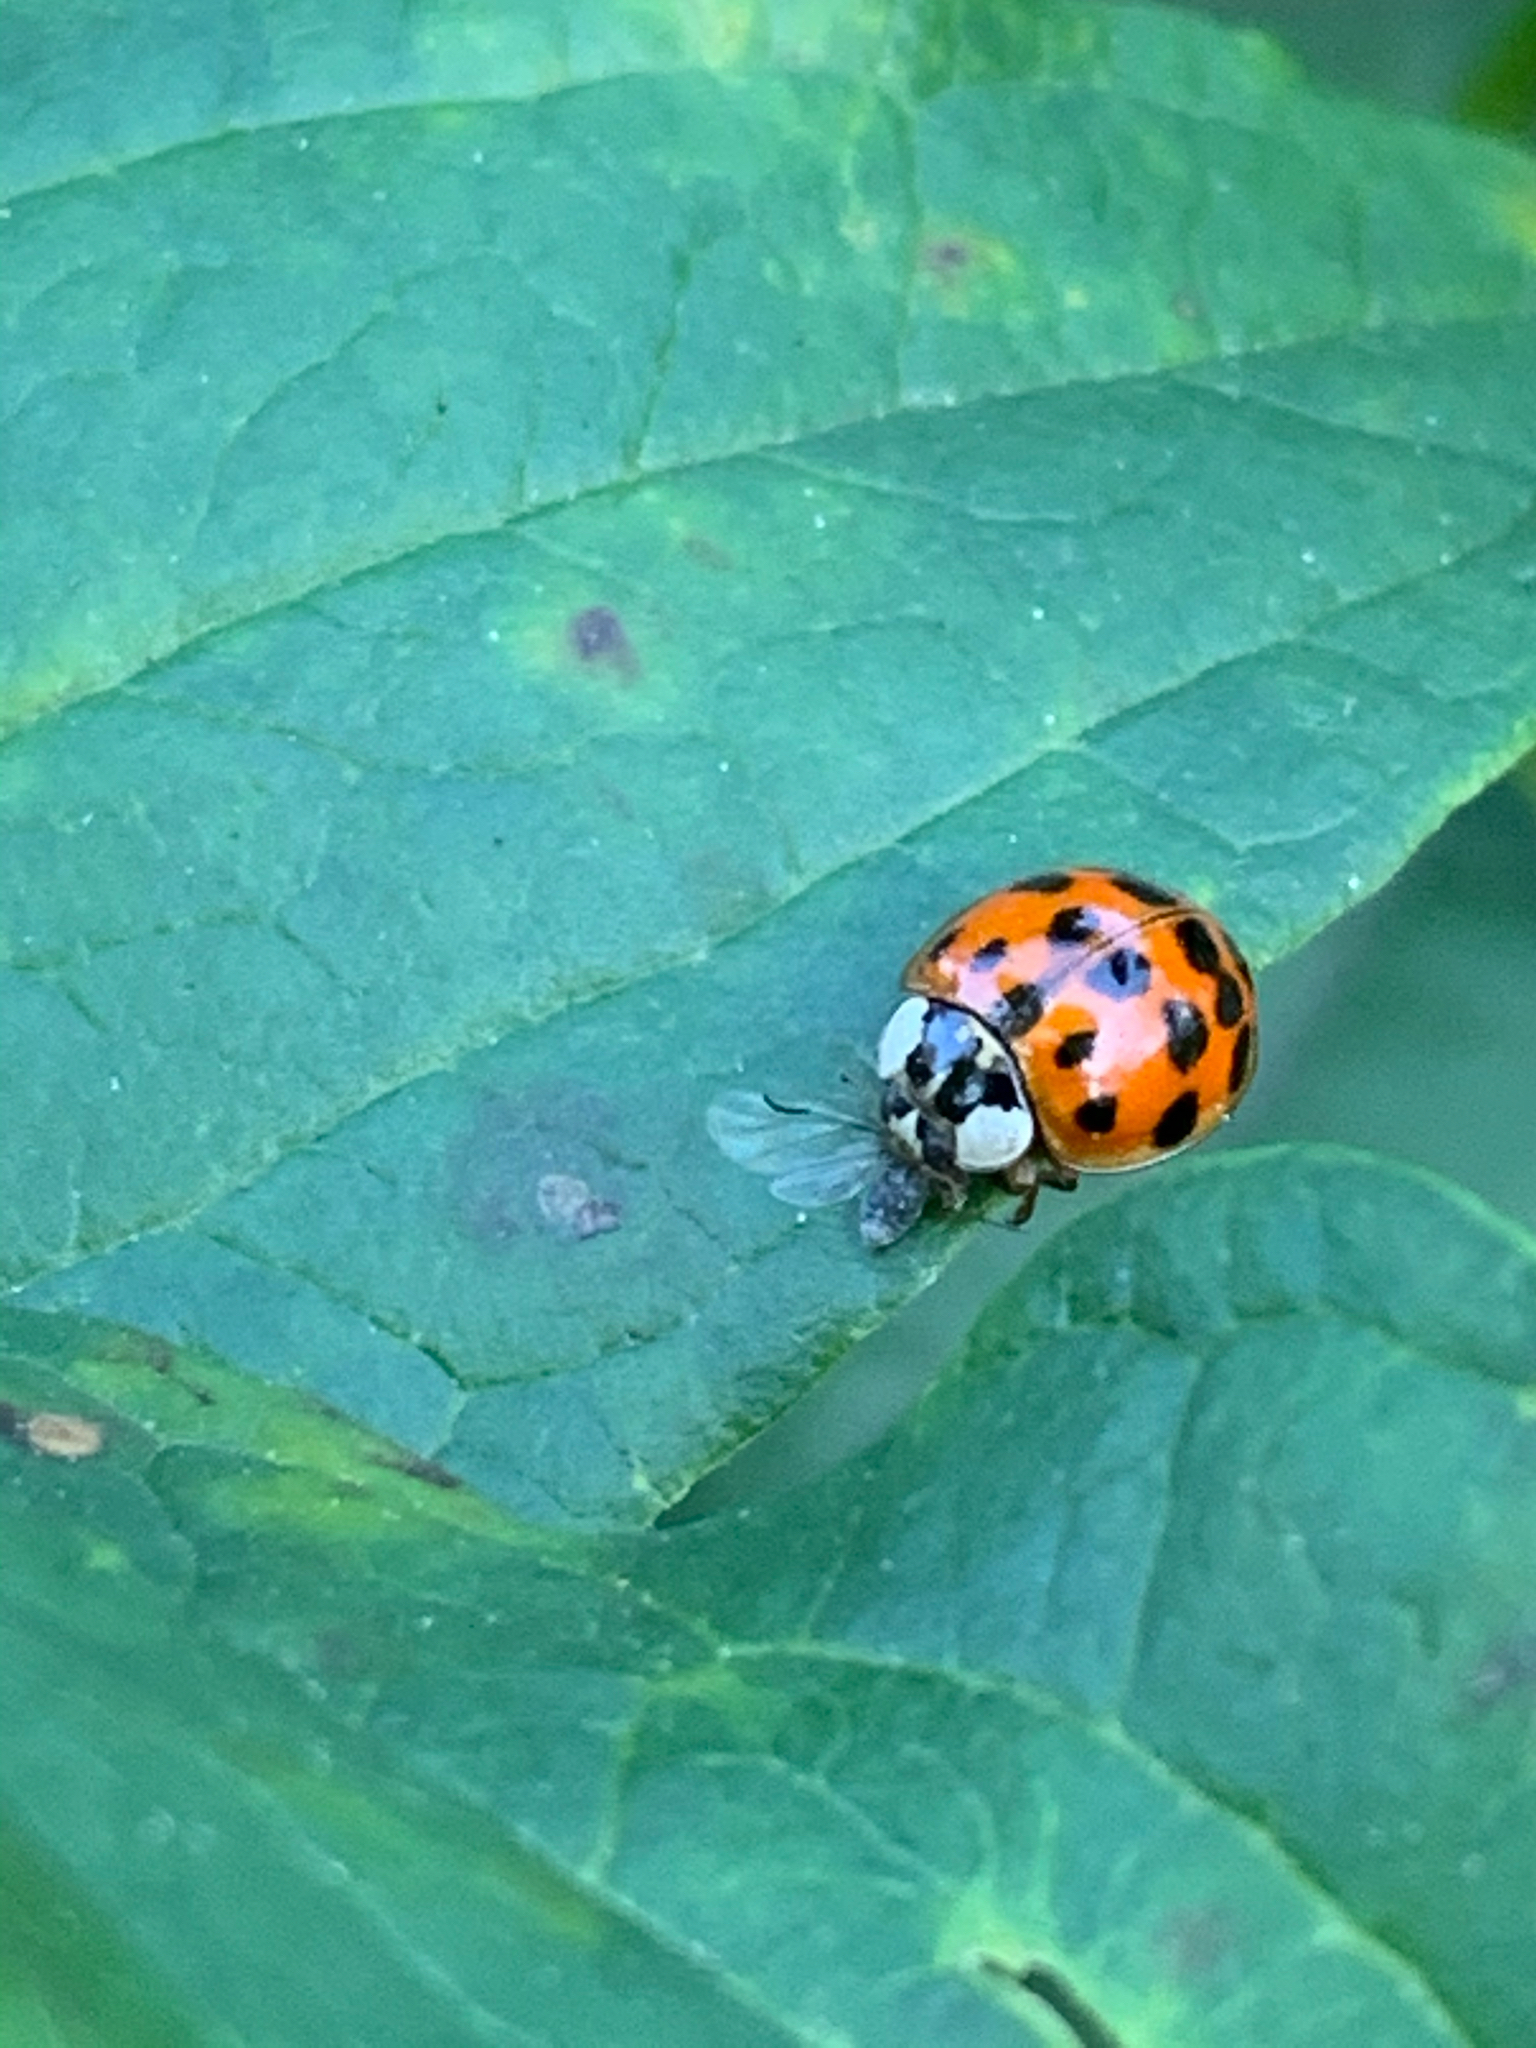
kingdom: Animalia
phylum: Arthropoda
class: Insecta
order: Coleoptera
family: Coccinellidae
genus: Harmonia
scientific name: Harmonia axyridis
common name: Harlequin ladybird
